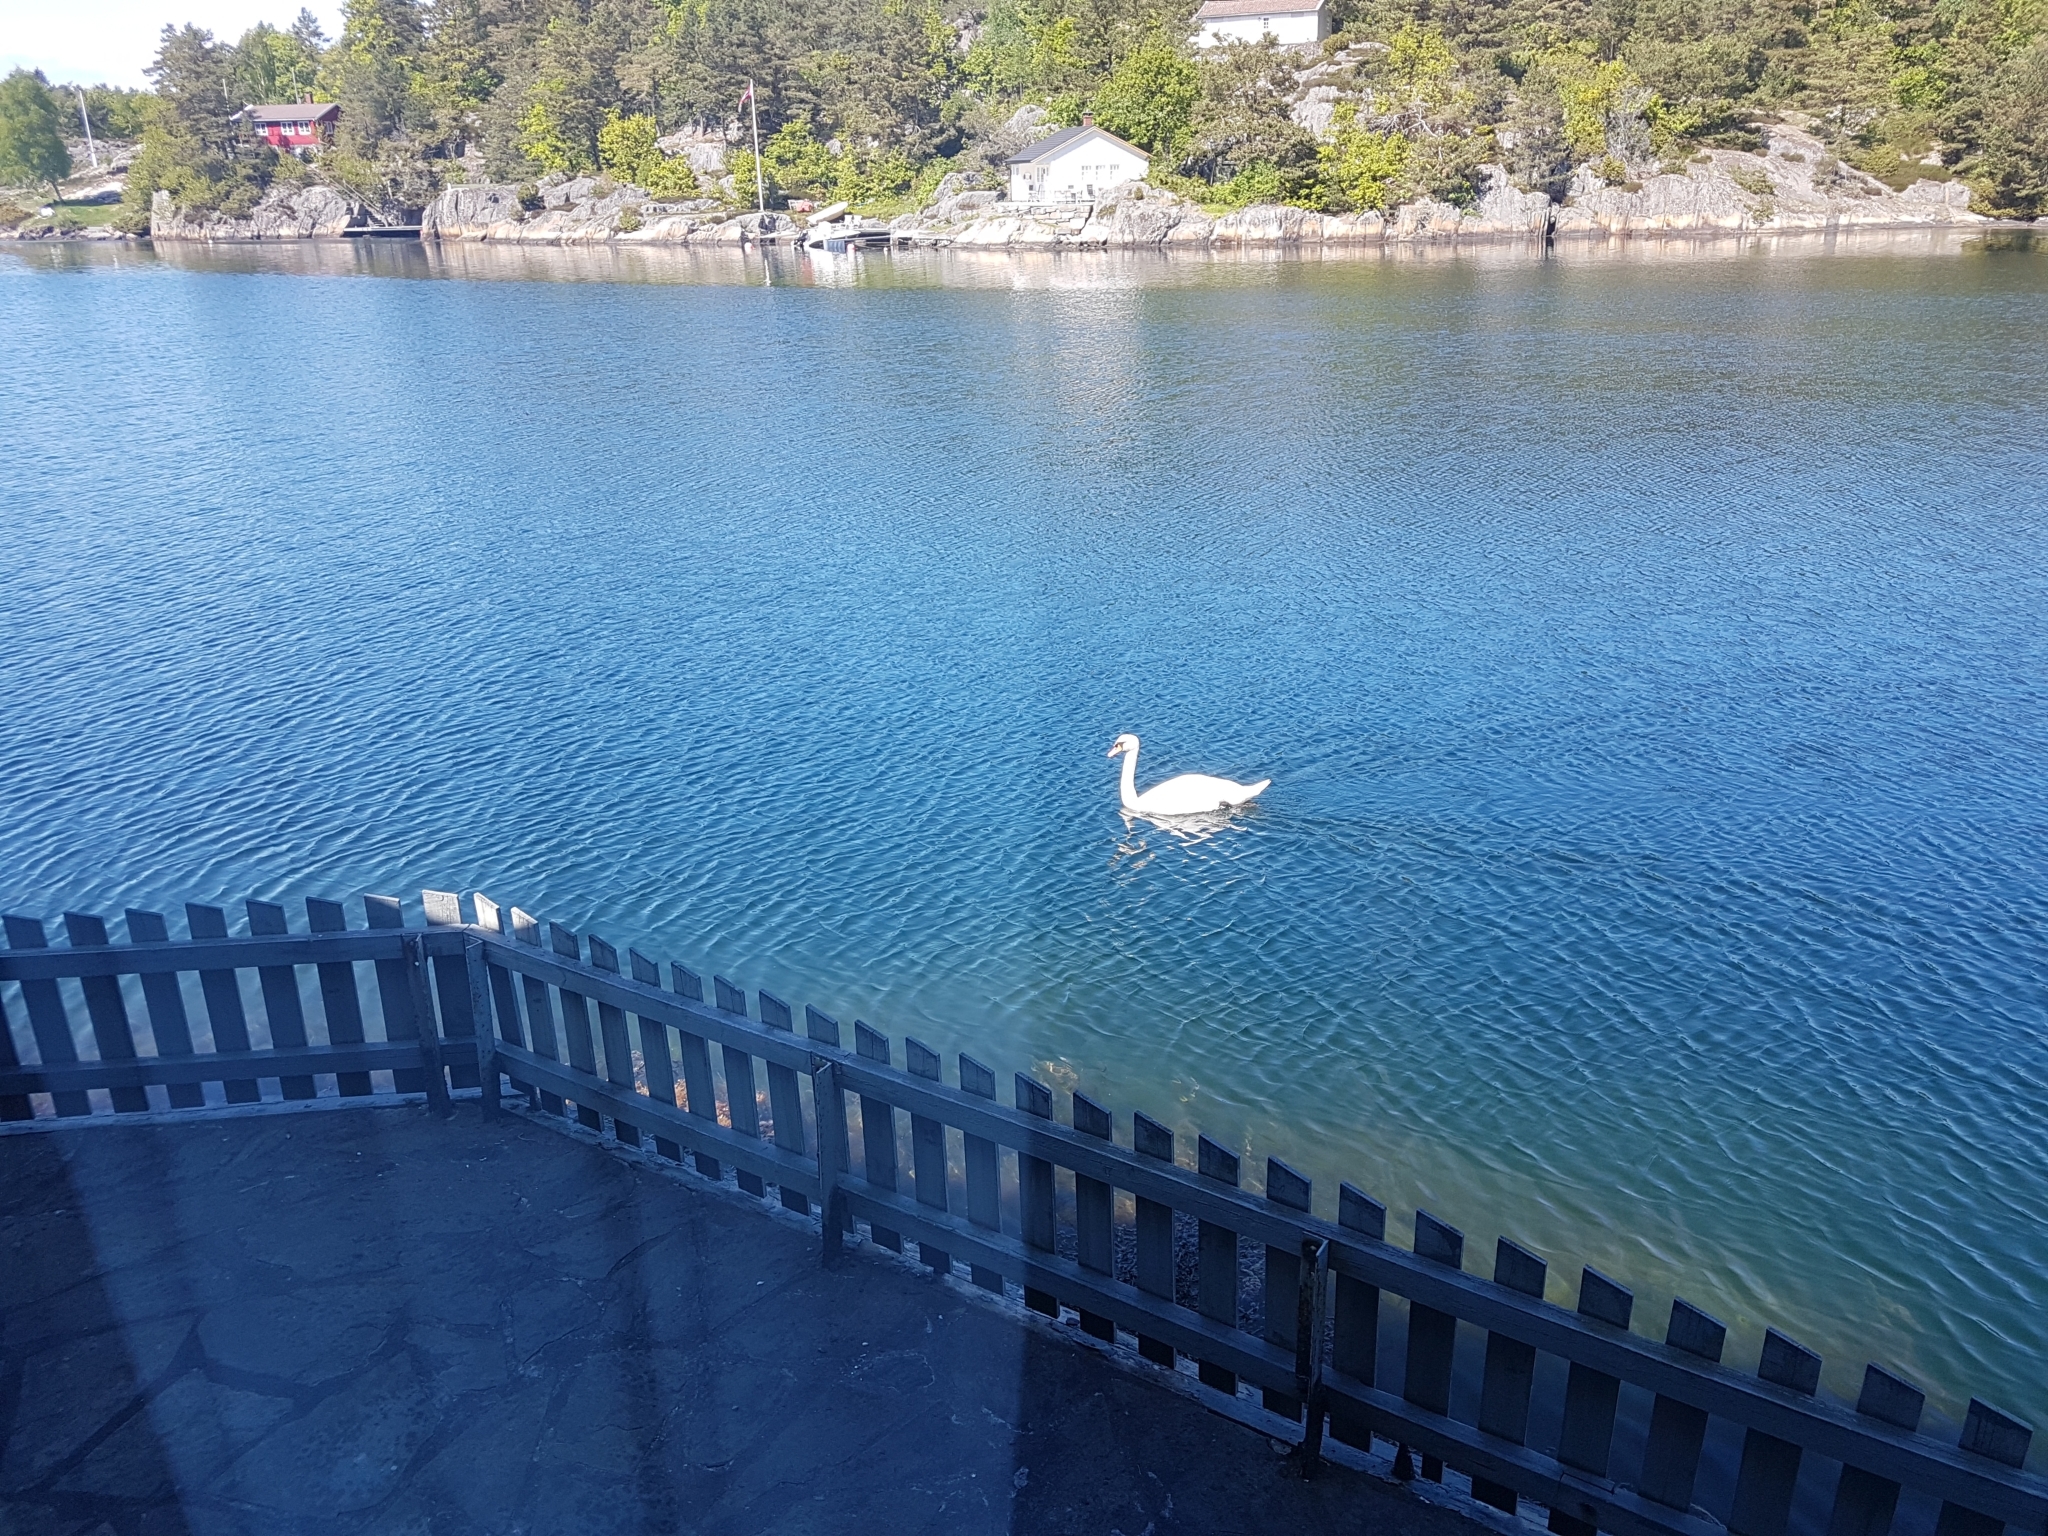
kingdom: Animalia
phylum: Chordata
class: Aves
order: Anseriformes
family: Anatidae
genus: Cygnus
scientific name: Cygnus olor
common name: Mute swan
